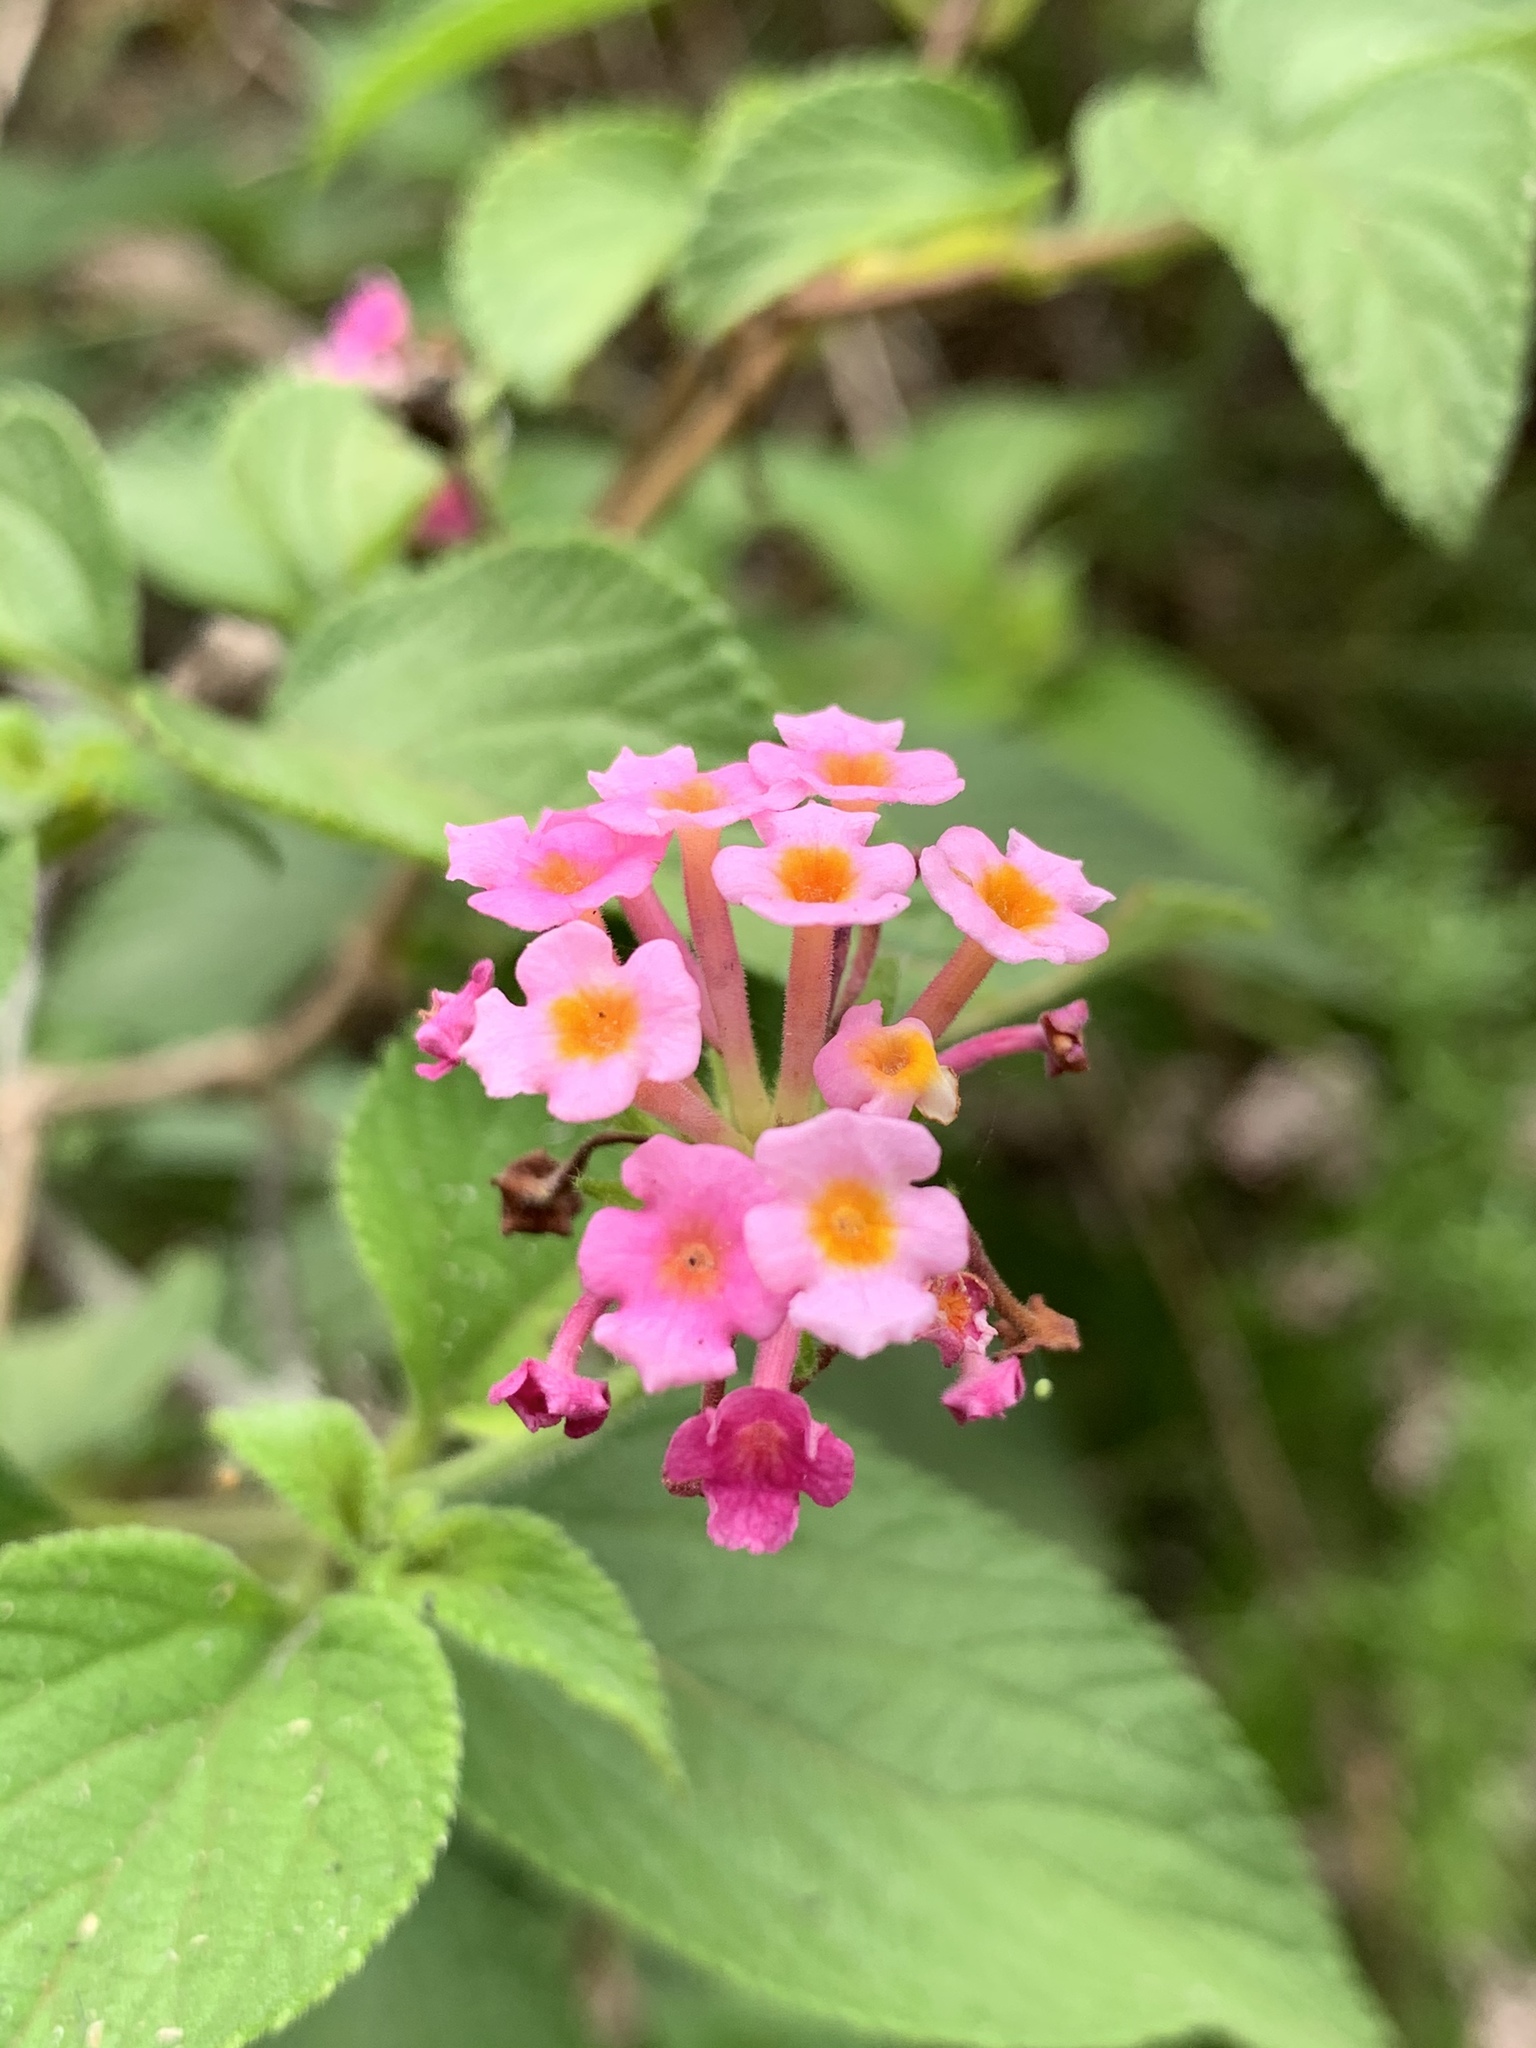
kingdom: Plantae
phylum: Tracheophyta
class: Magnoliopsida
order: Lamiales
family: Verbenaceae
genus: Lantana
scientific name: Lantana camara
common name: Lantana
